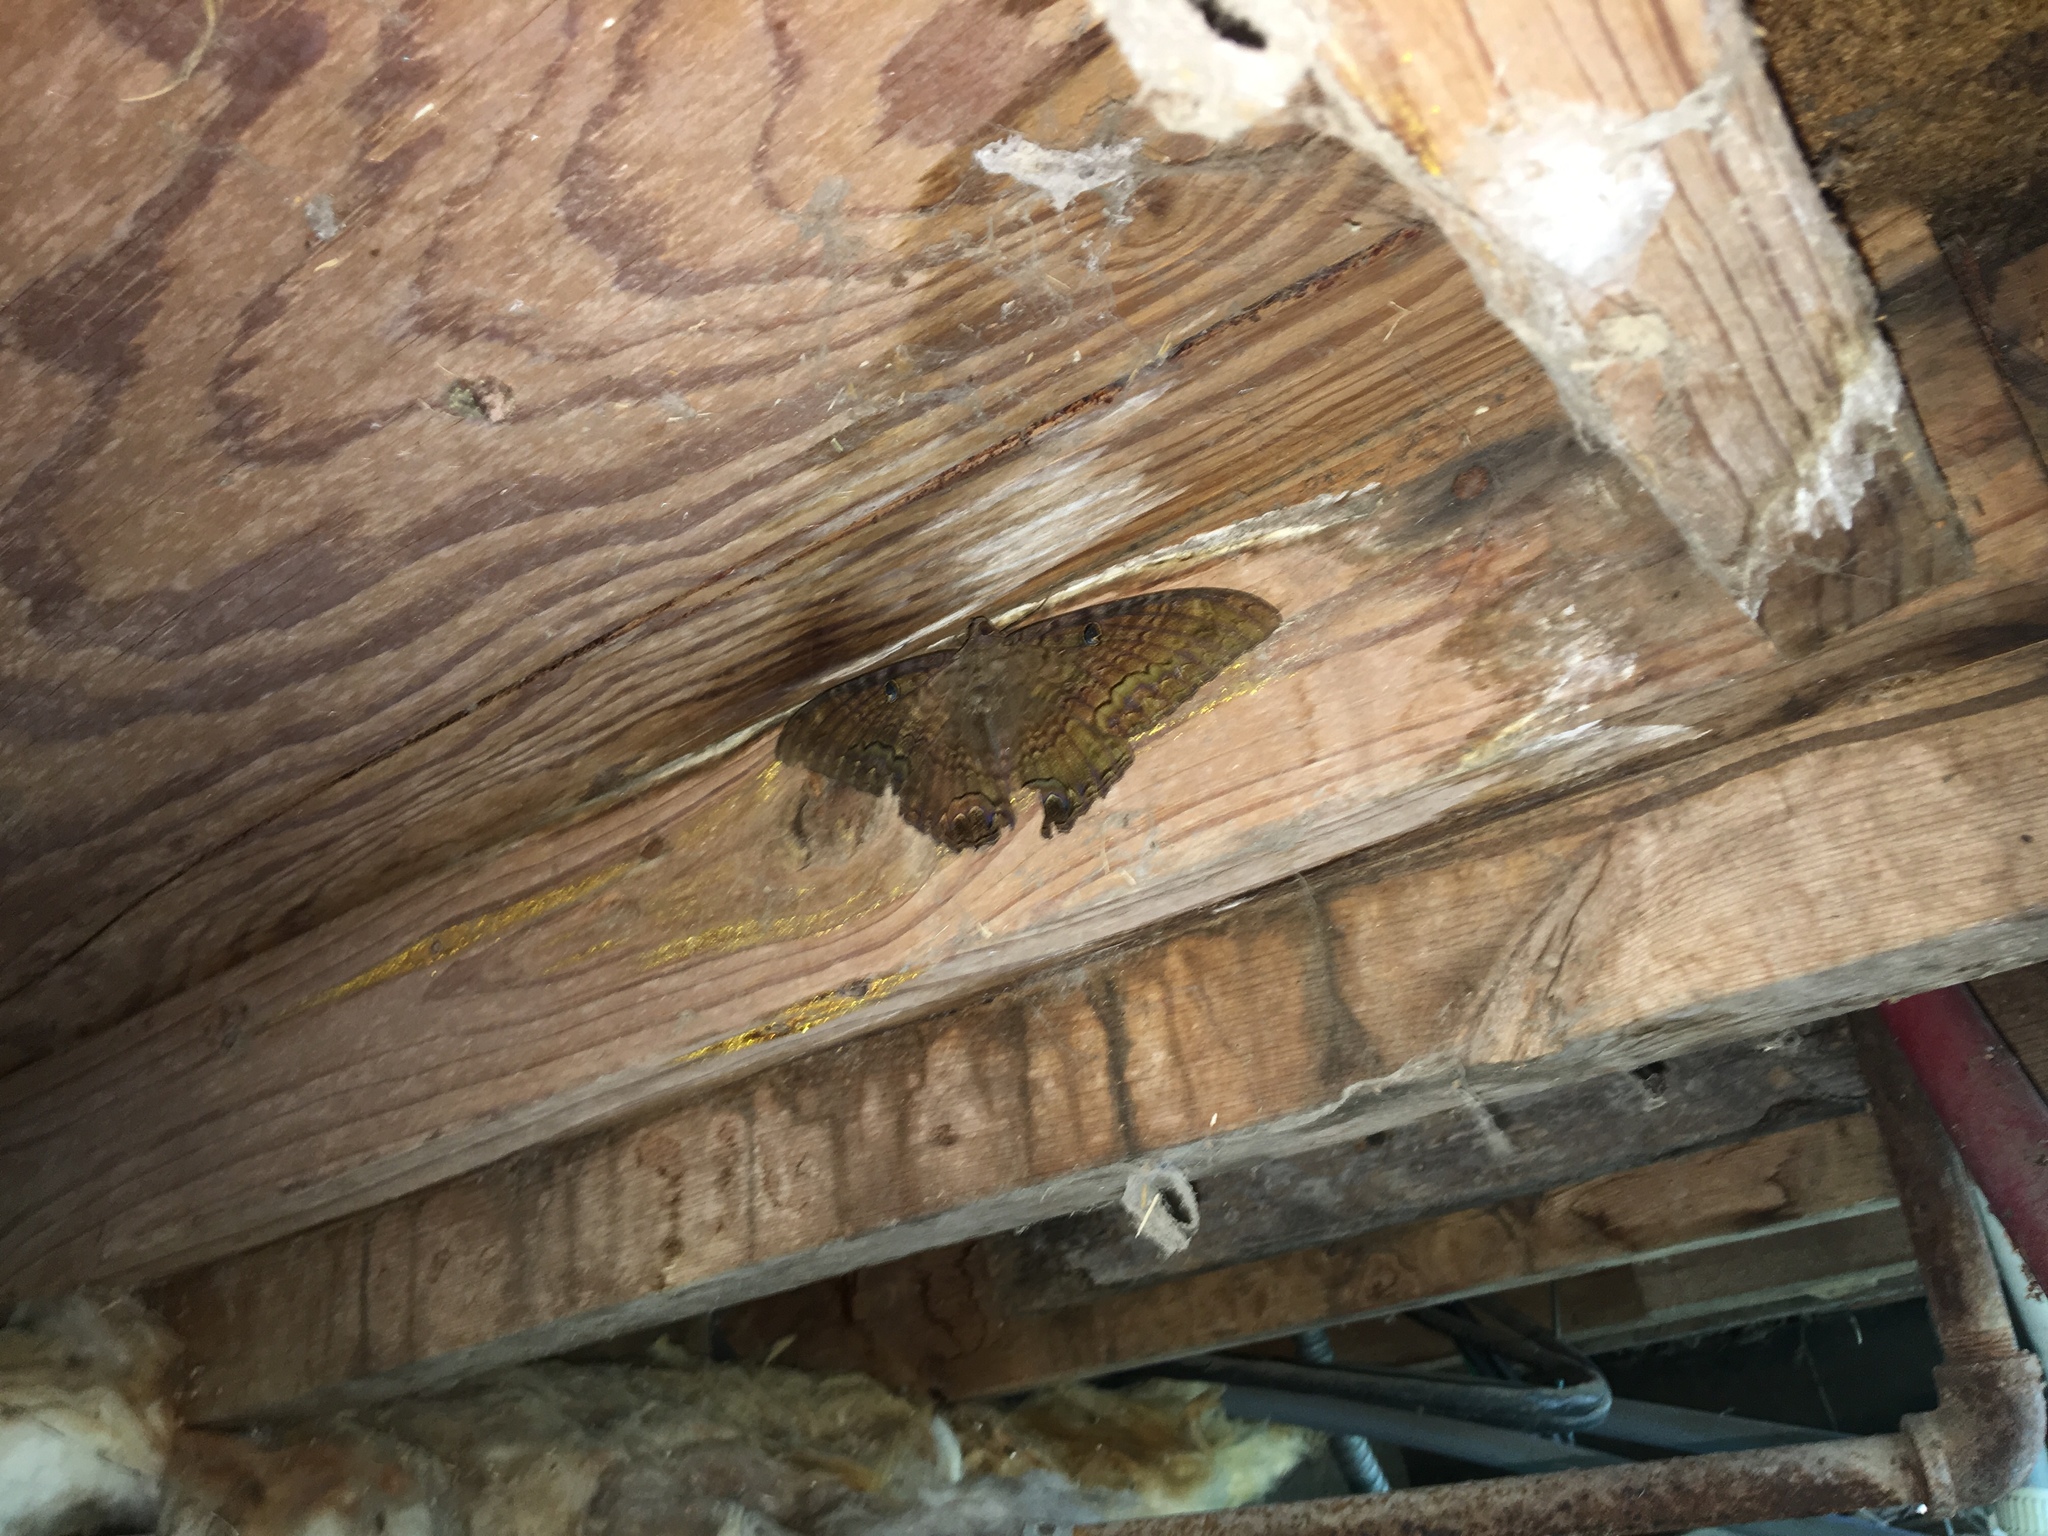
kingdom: Animalia
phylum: Arthropoda
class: Insecta
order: Lepidoptera
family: Erebidae
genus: Ascalapha
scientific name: Ascalapha odorata
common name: Black witch
